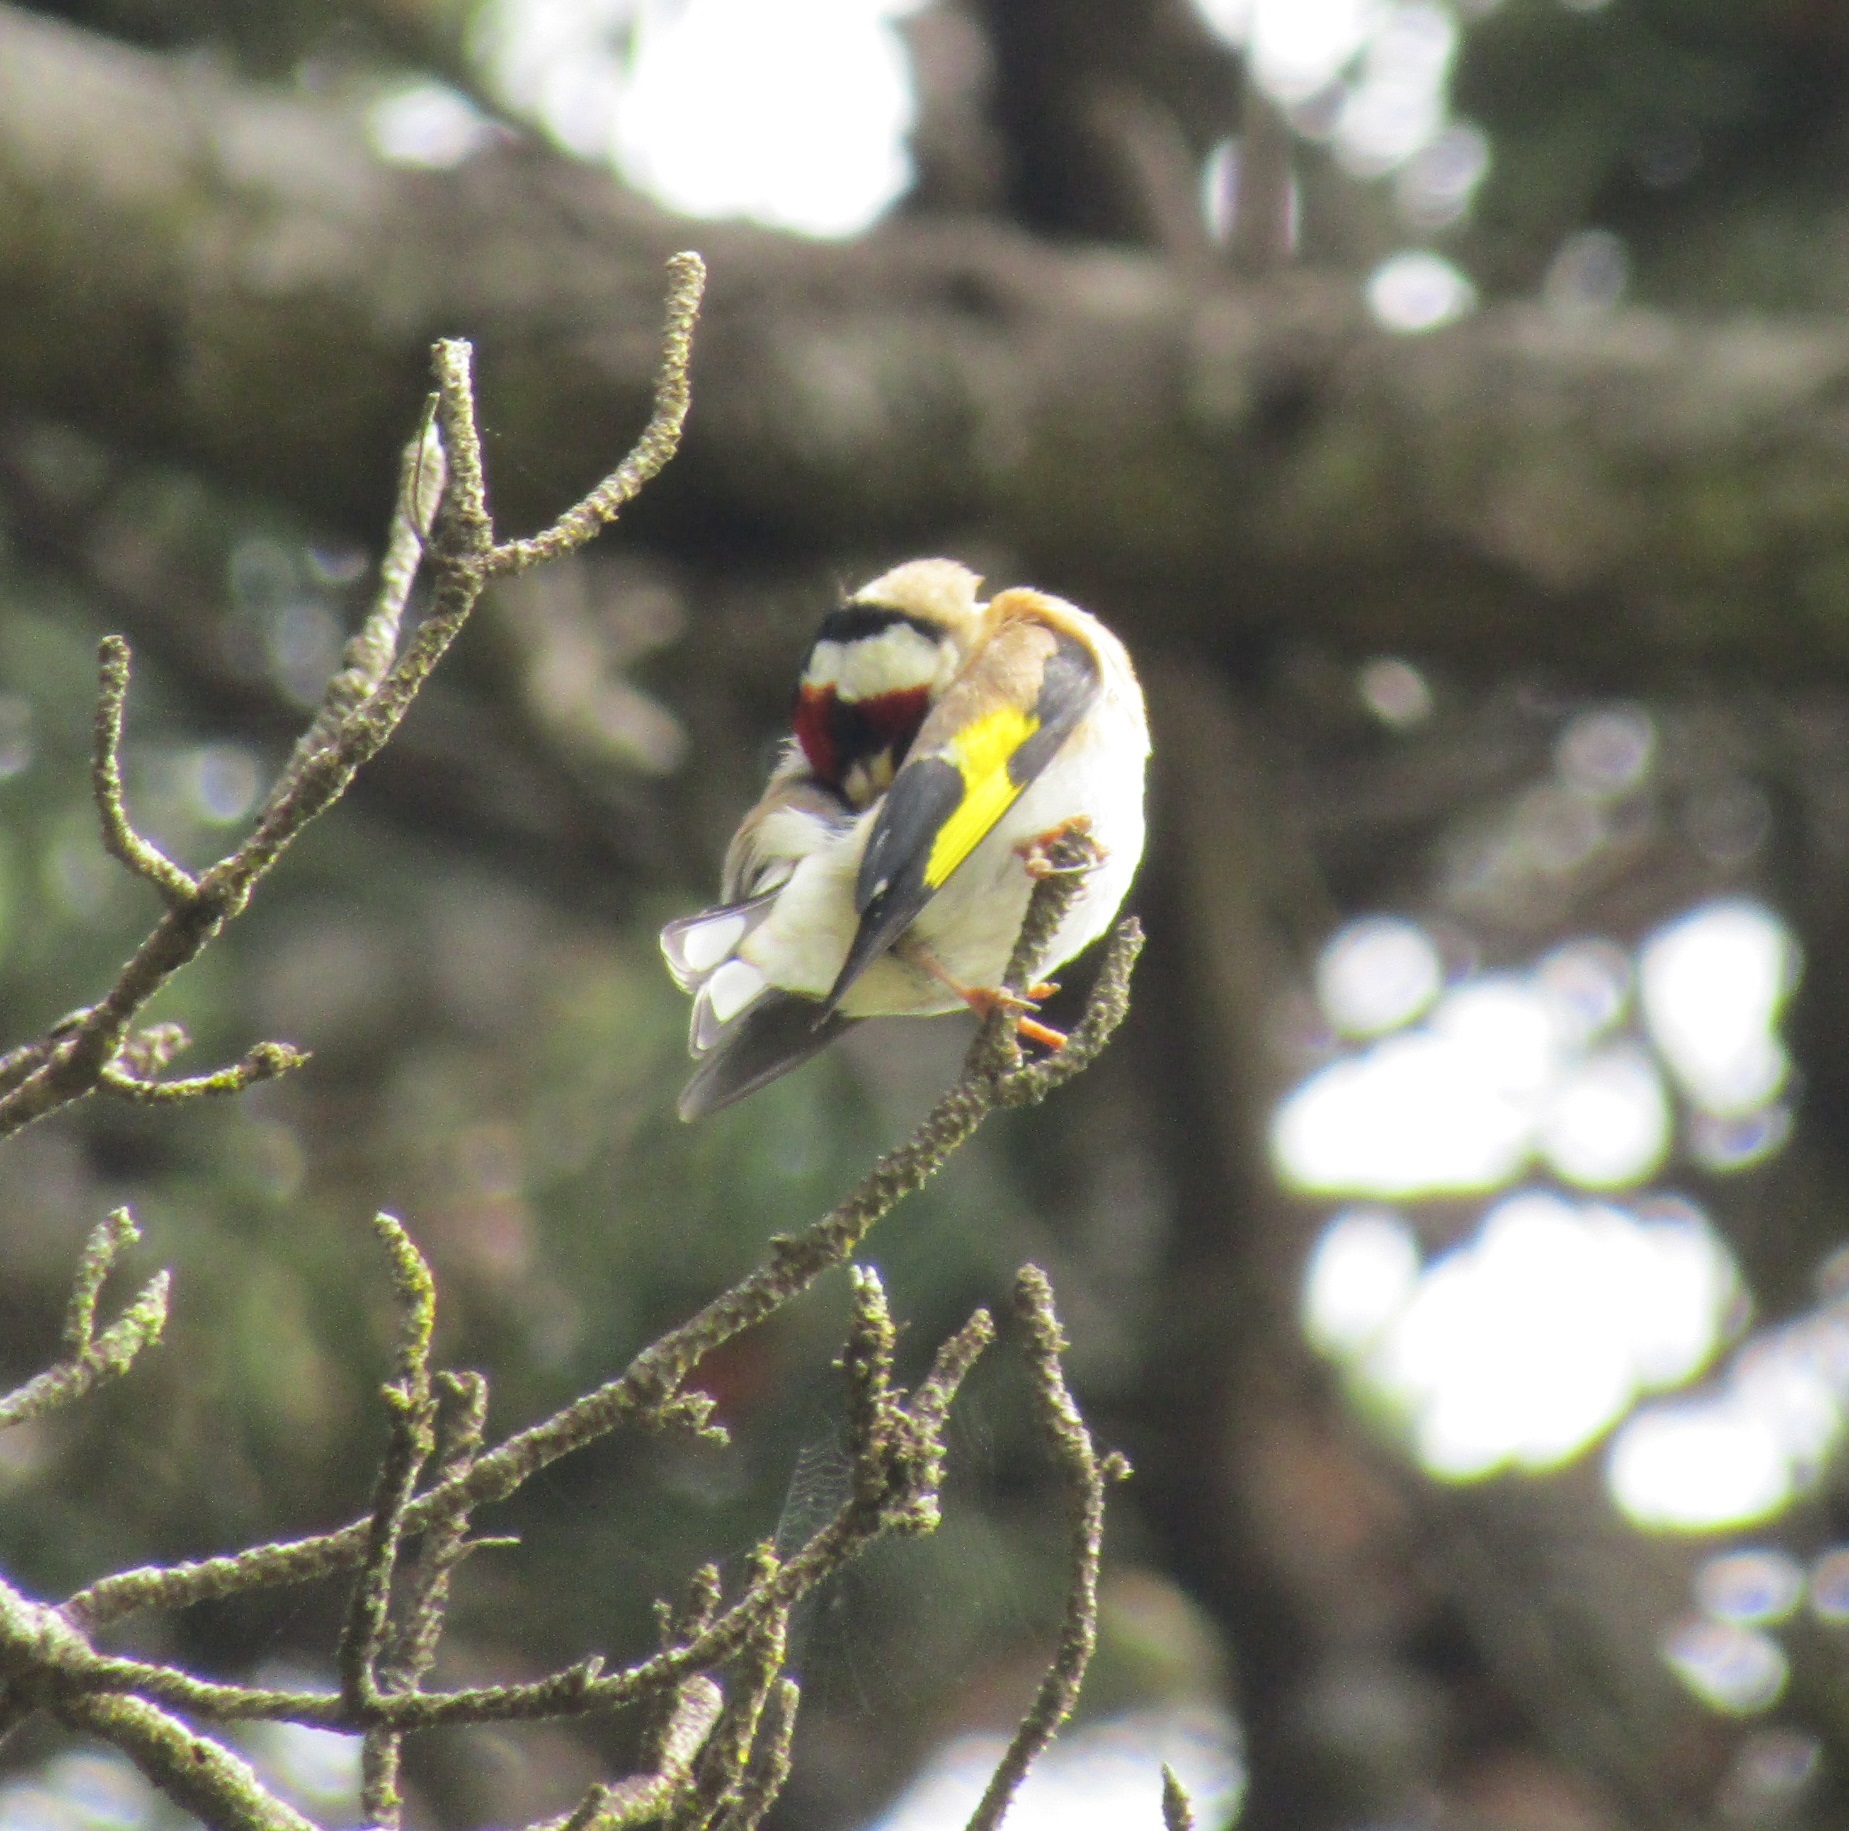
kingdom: Animalia
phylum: Chordata
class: Aves
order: Passeriformes
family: Fringillidae
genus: Carduelis
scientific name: Carduelis carduelis
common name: European goldfinch
